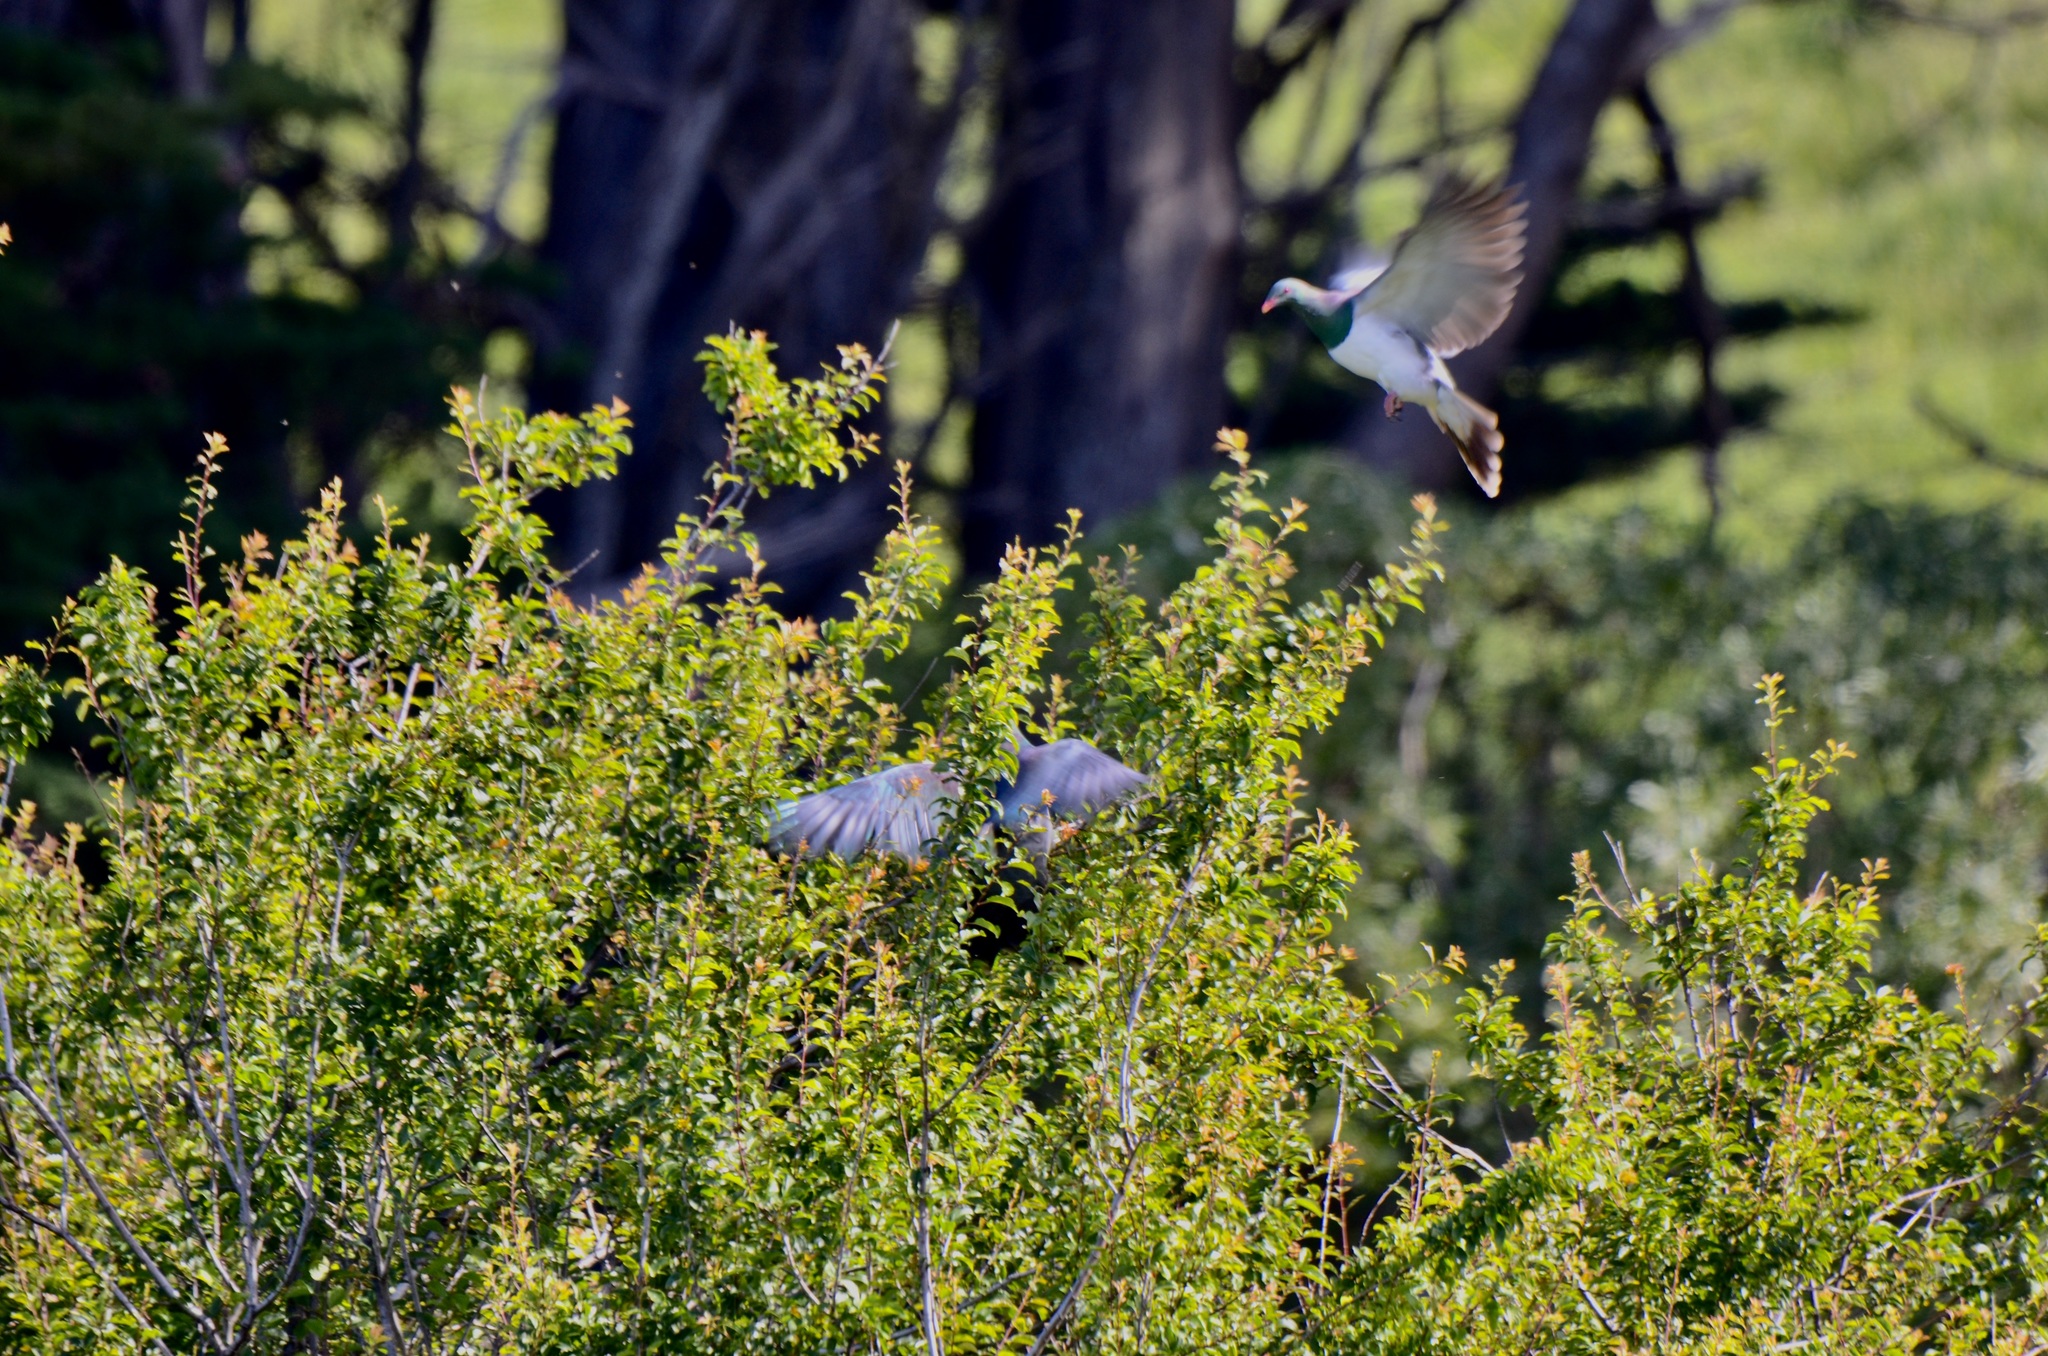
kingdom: Animalia
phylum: Chordata
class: Aves
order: Columbiformes
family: Columbidae
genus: Hemiphaga
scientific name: Hemiphaga novaeseelandiae
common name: New zealand pigeon
